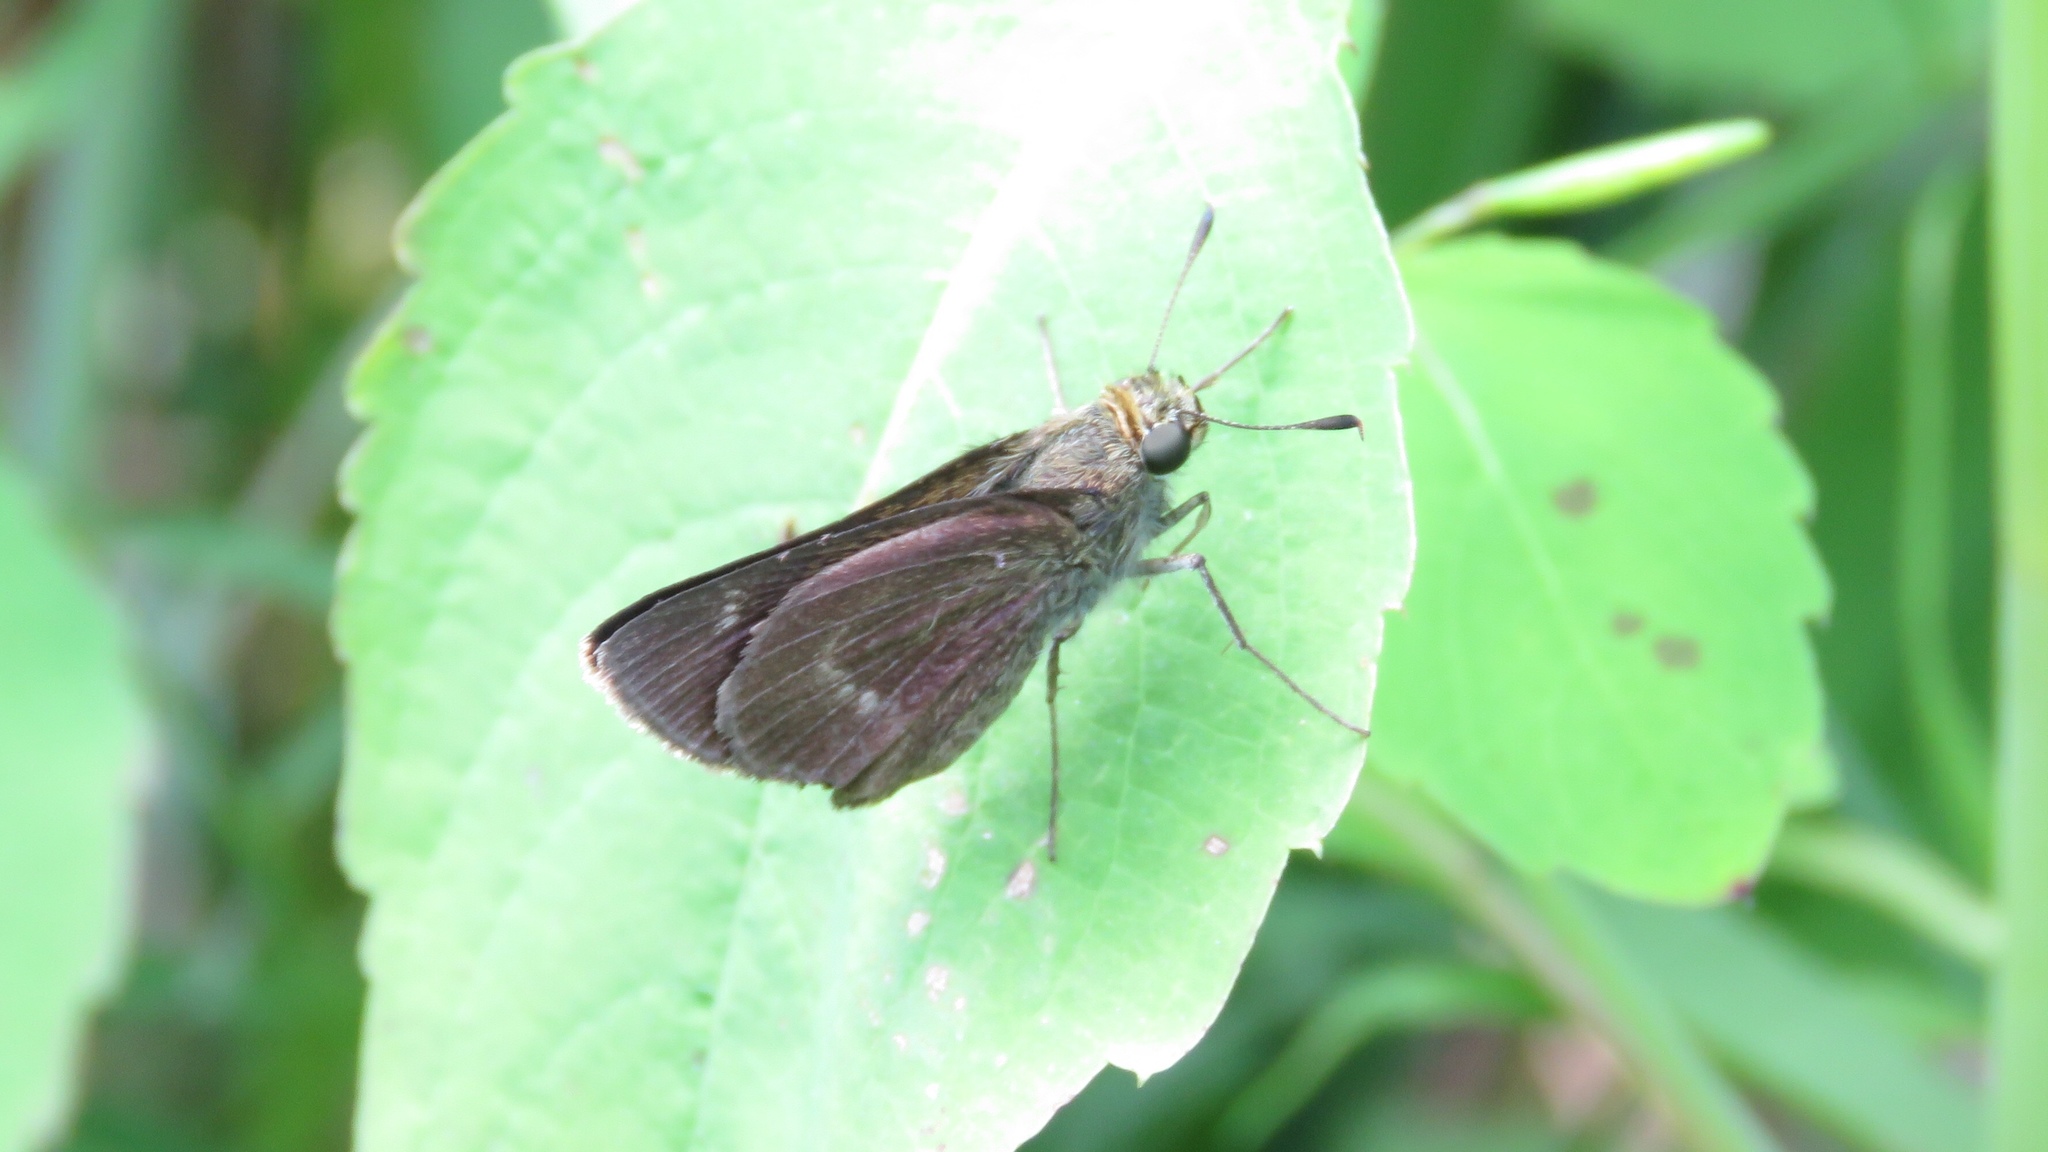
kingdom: Animalia
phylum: Arthropoda
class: Insecta
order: Lepidoptera
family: Hesperiidae
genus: Euphyes
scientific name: Euphyes vestris
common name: Dun skipper
